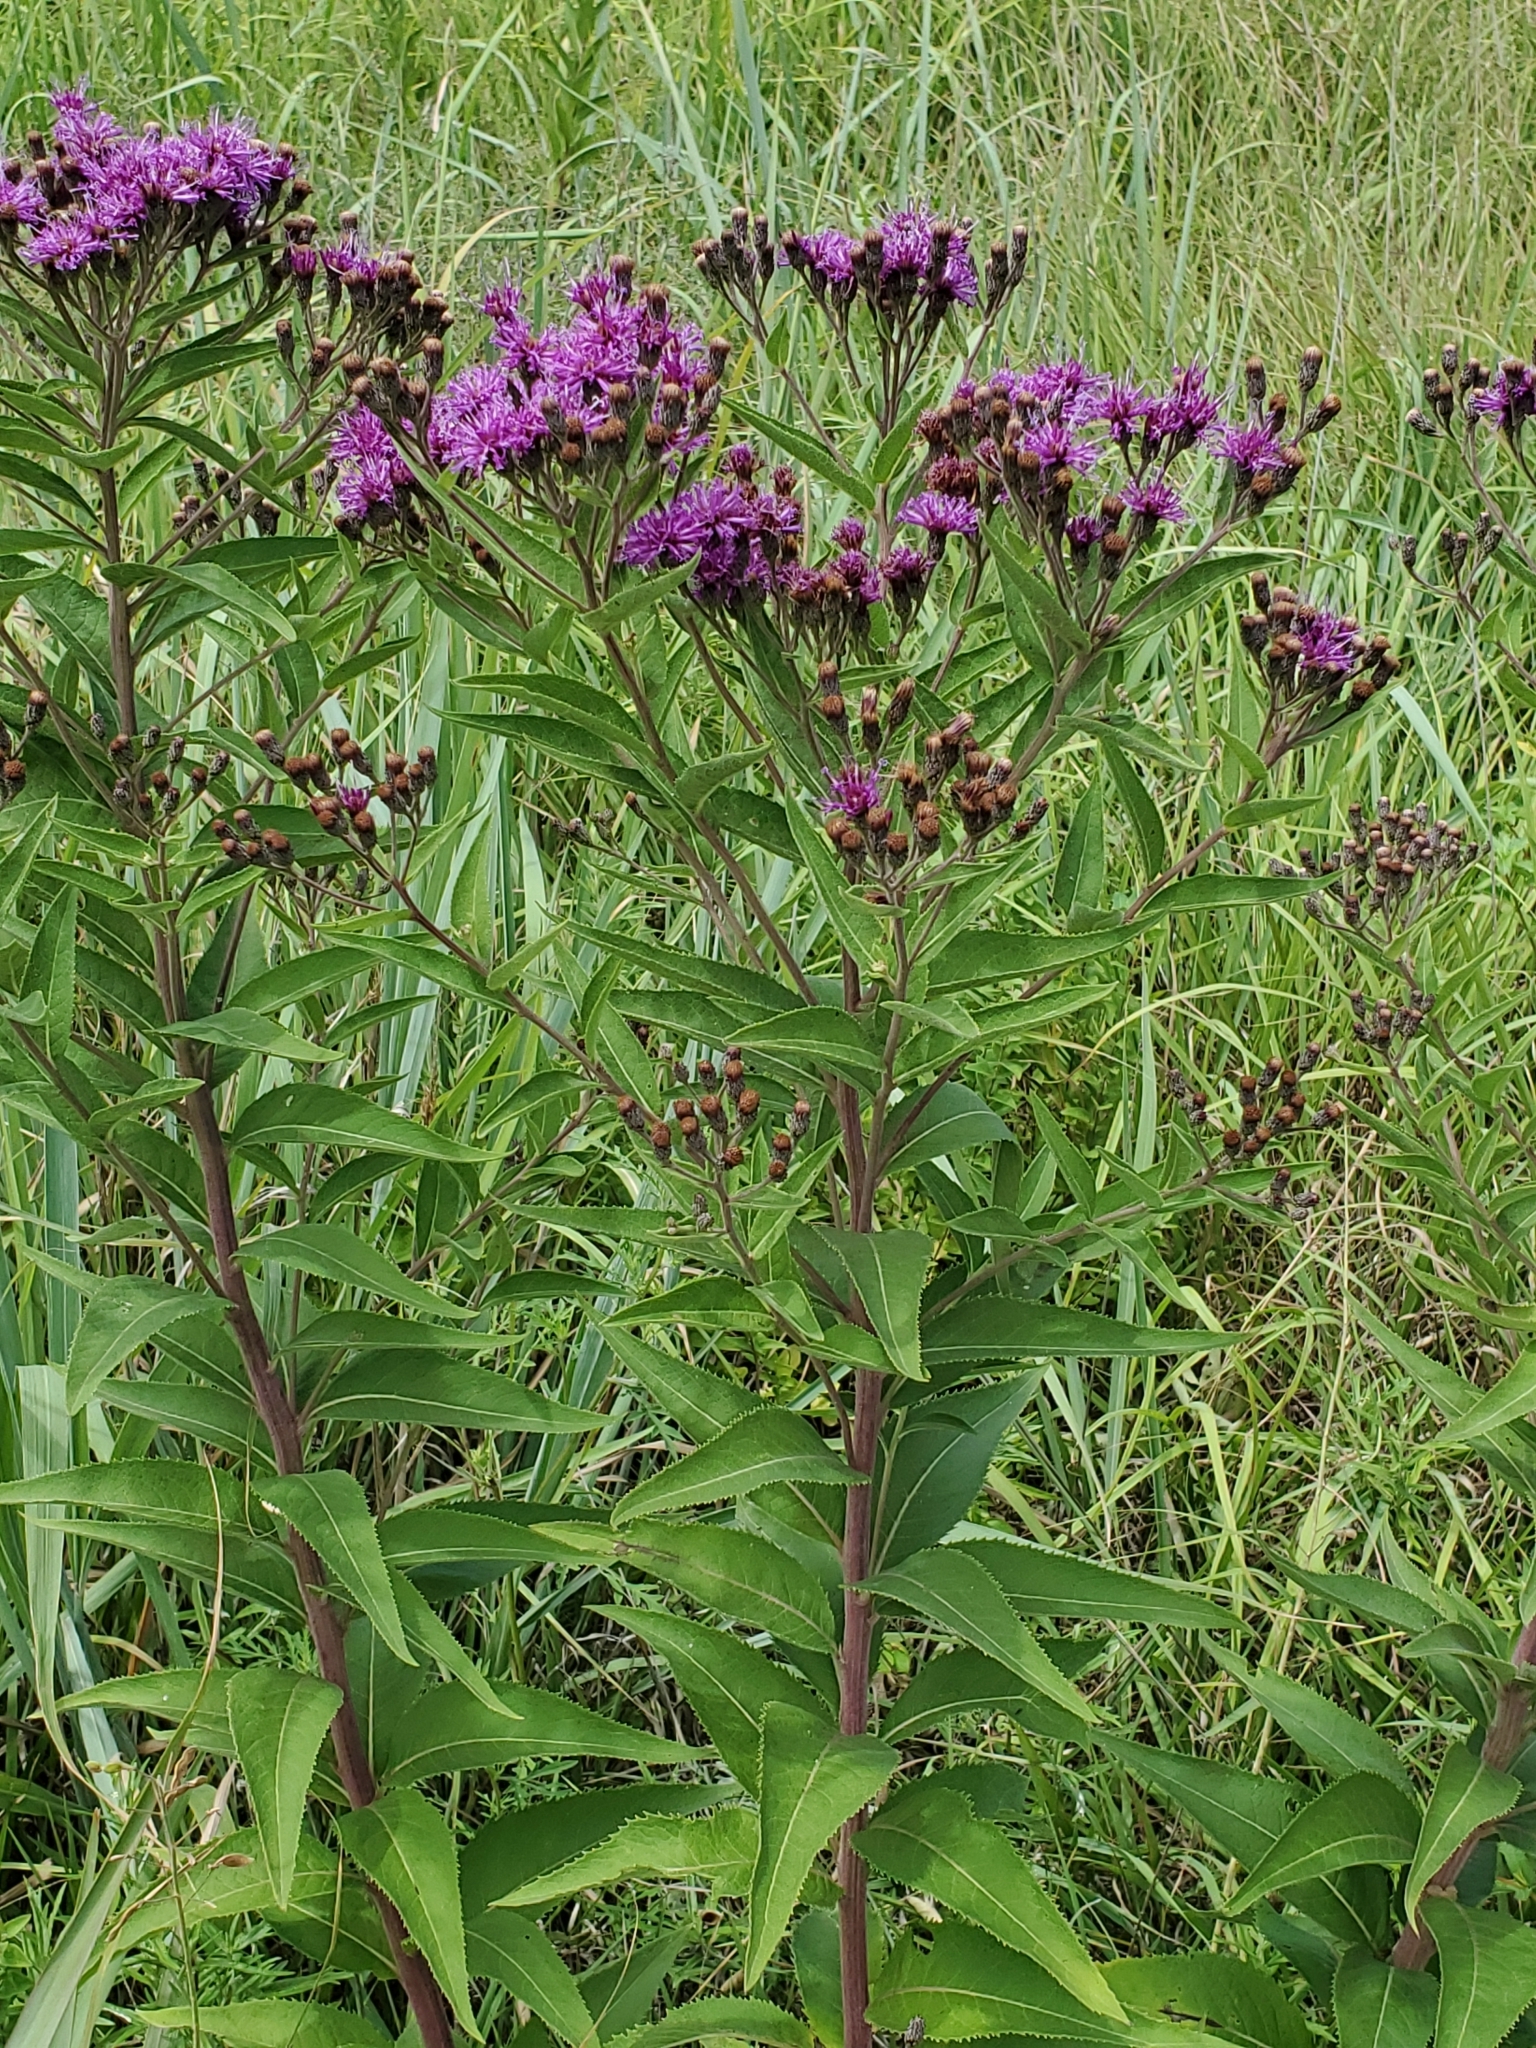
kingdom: Plantae
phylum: Tracheophyta
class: Magnoliopsida
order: Asterales
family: Asteraceae
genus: Vernonia
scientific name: Vernonia baldwinii
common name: Western ironweed
